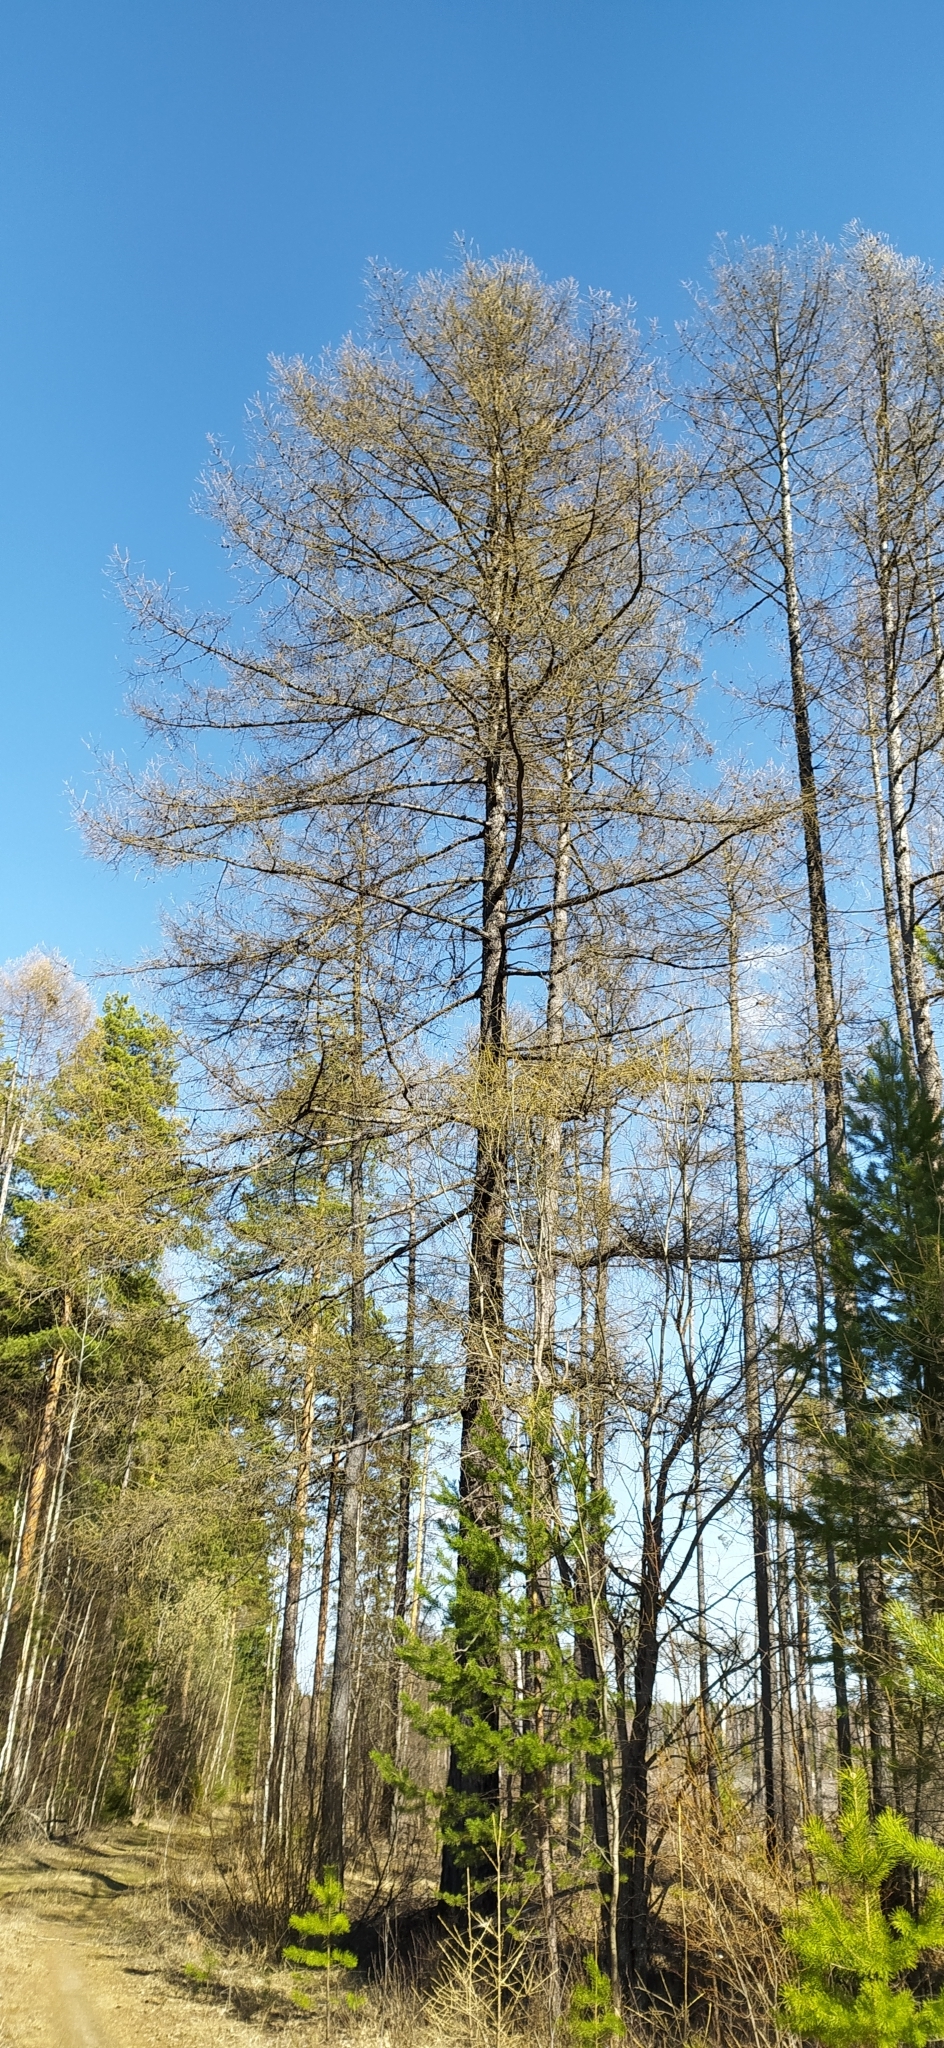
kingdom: Plantae
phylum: Tracheophyta
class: Pinopsida
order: Pinales
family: Pinaceae
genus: Larix
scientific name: Larix sibirica
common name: Siberian larch
